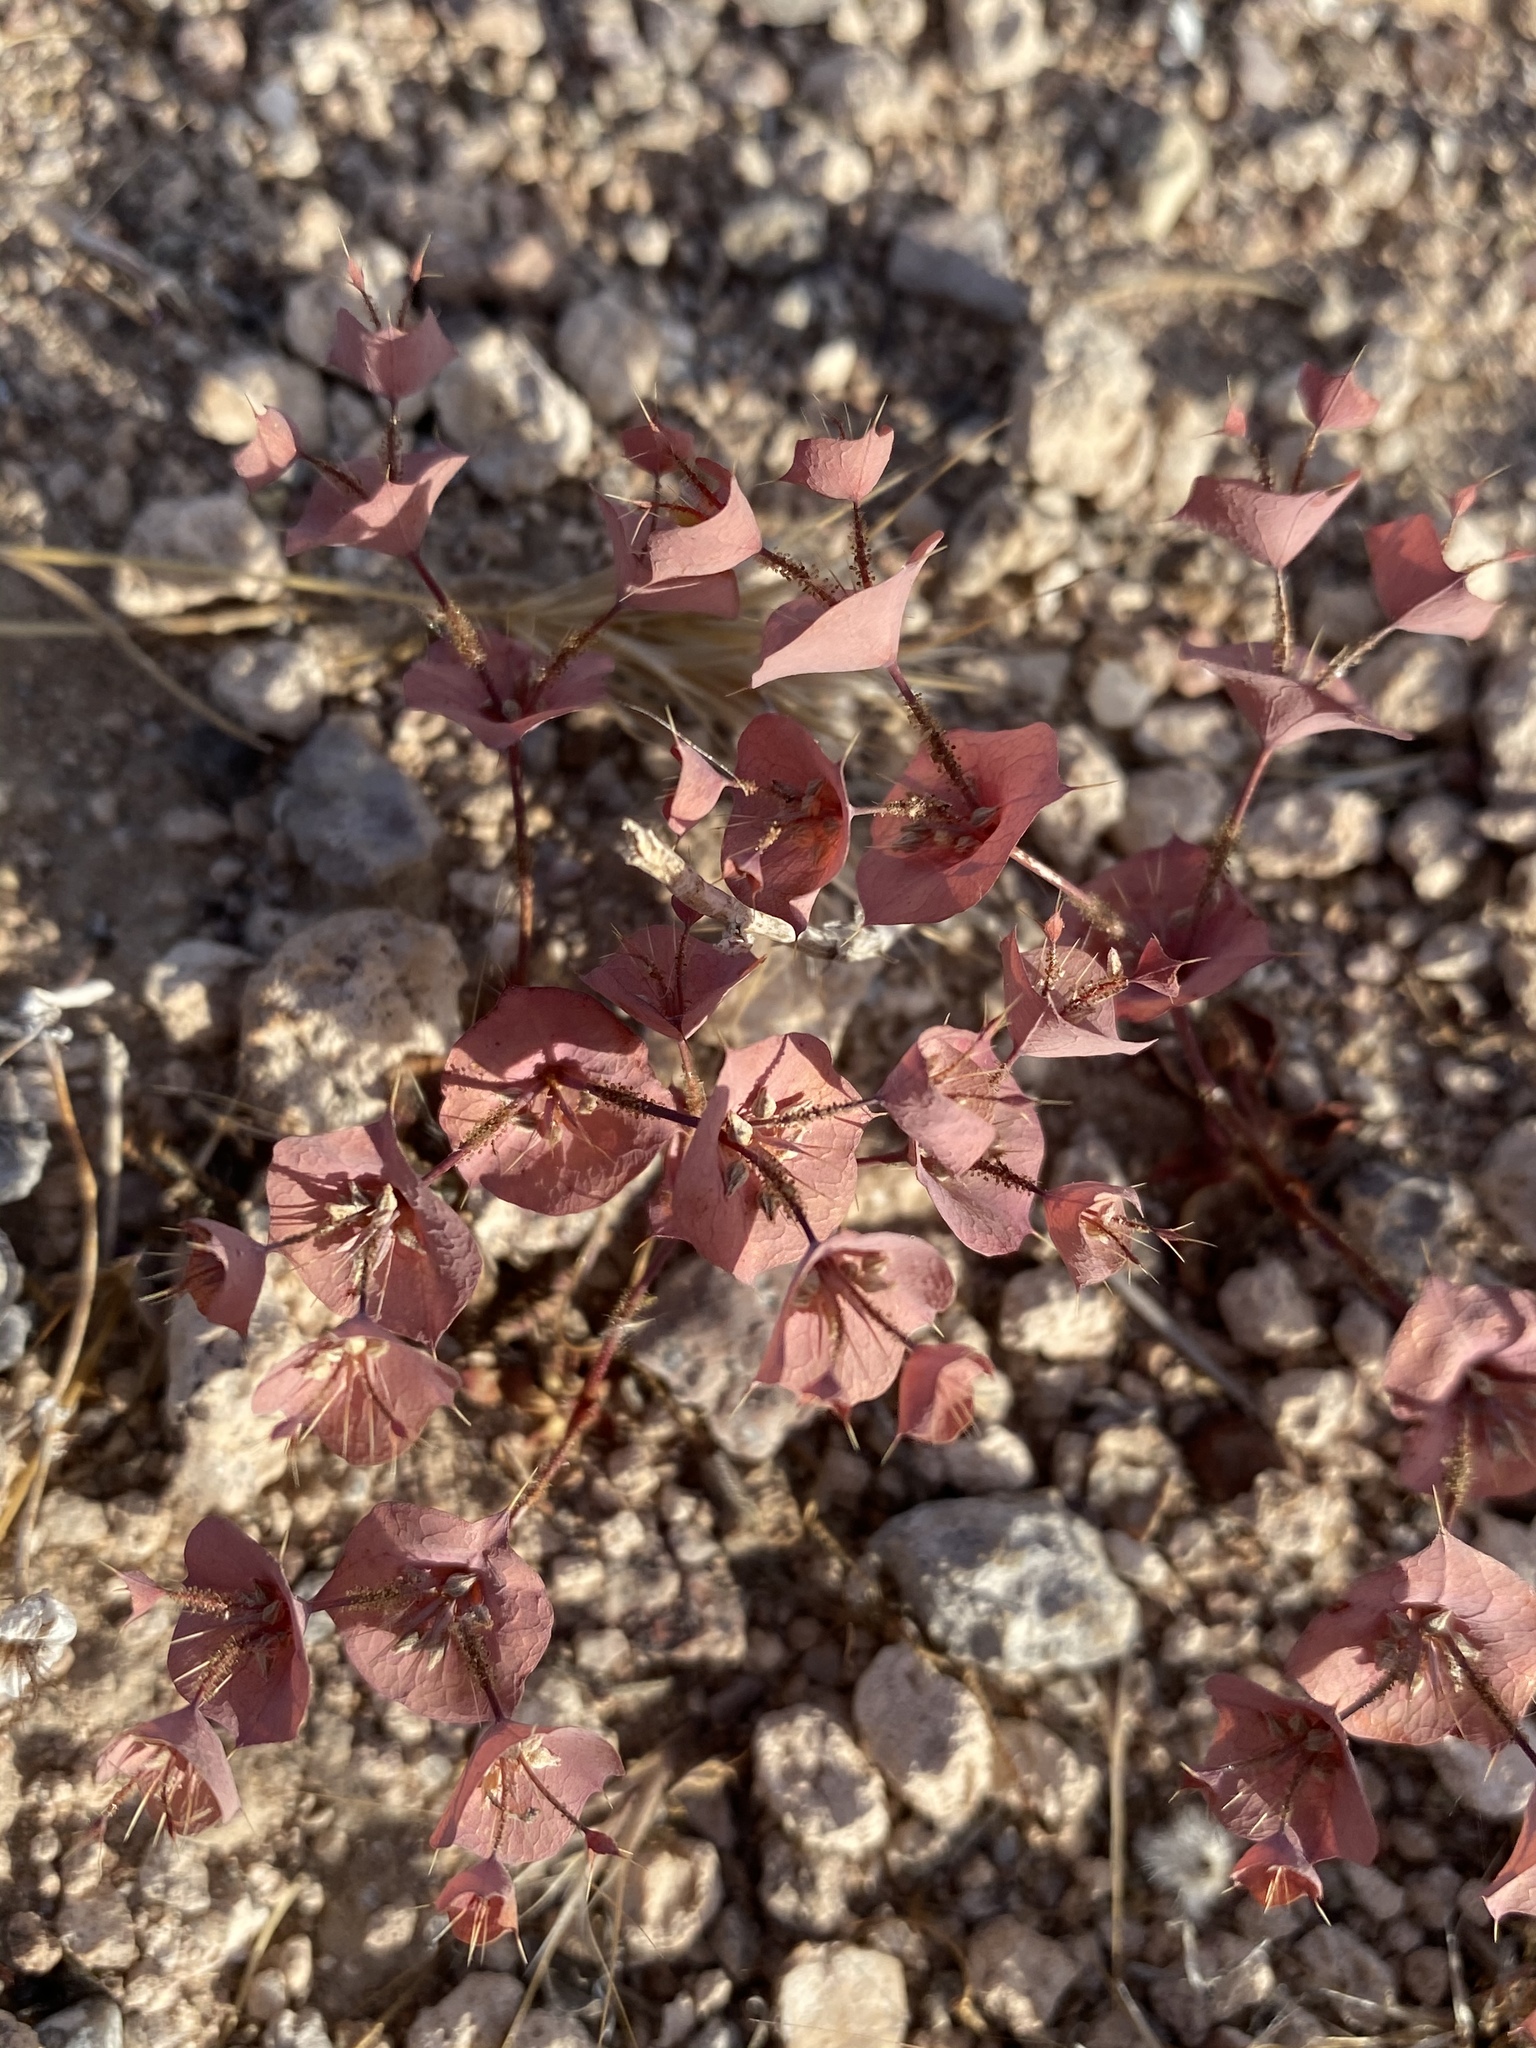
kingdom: Plantae
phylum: Tracheophyta
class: Magnoliopsida
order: Caryophyllales
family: Polygonaceae
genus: Oxytheca
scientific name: Oxytheca perfoliata
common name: Round-leaf puncturebract
